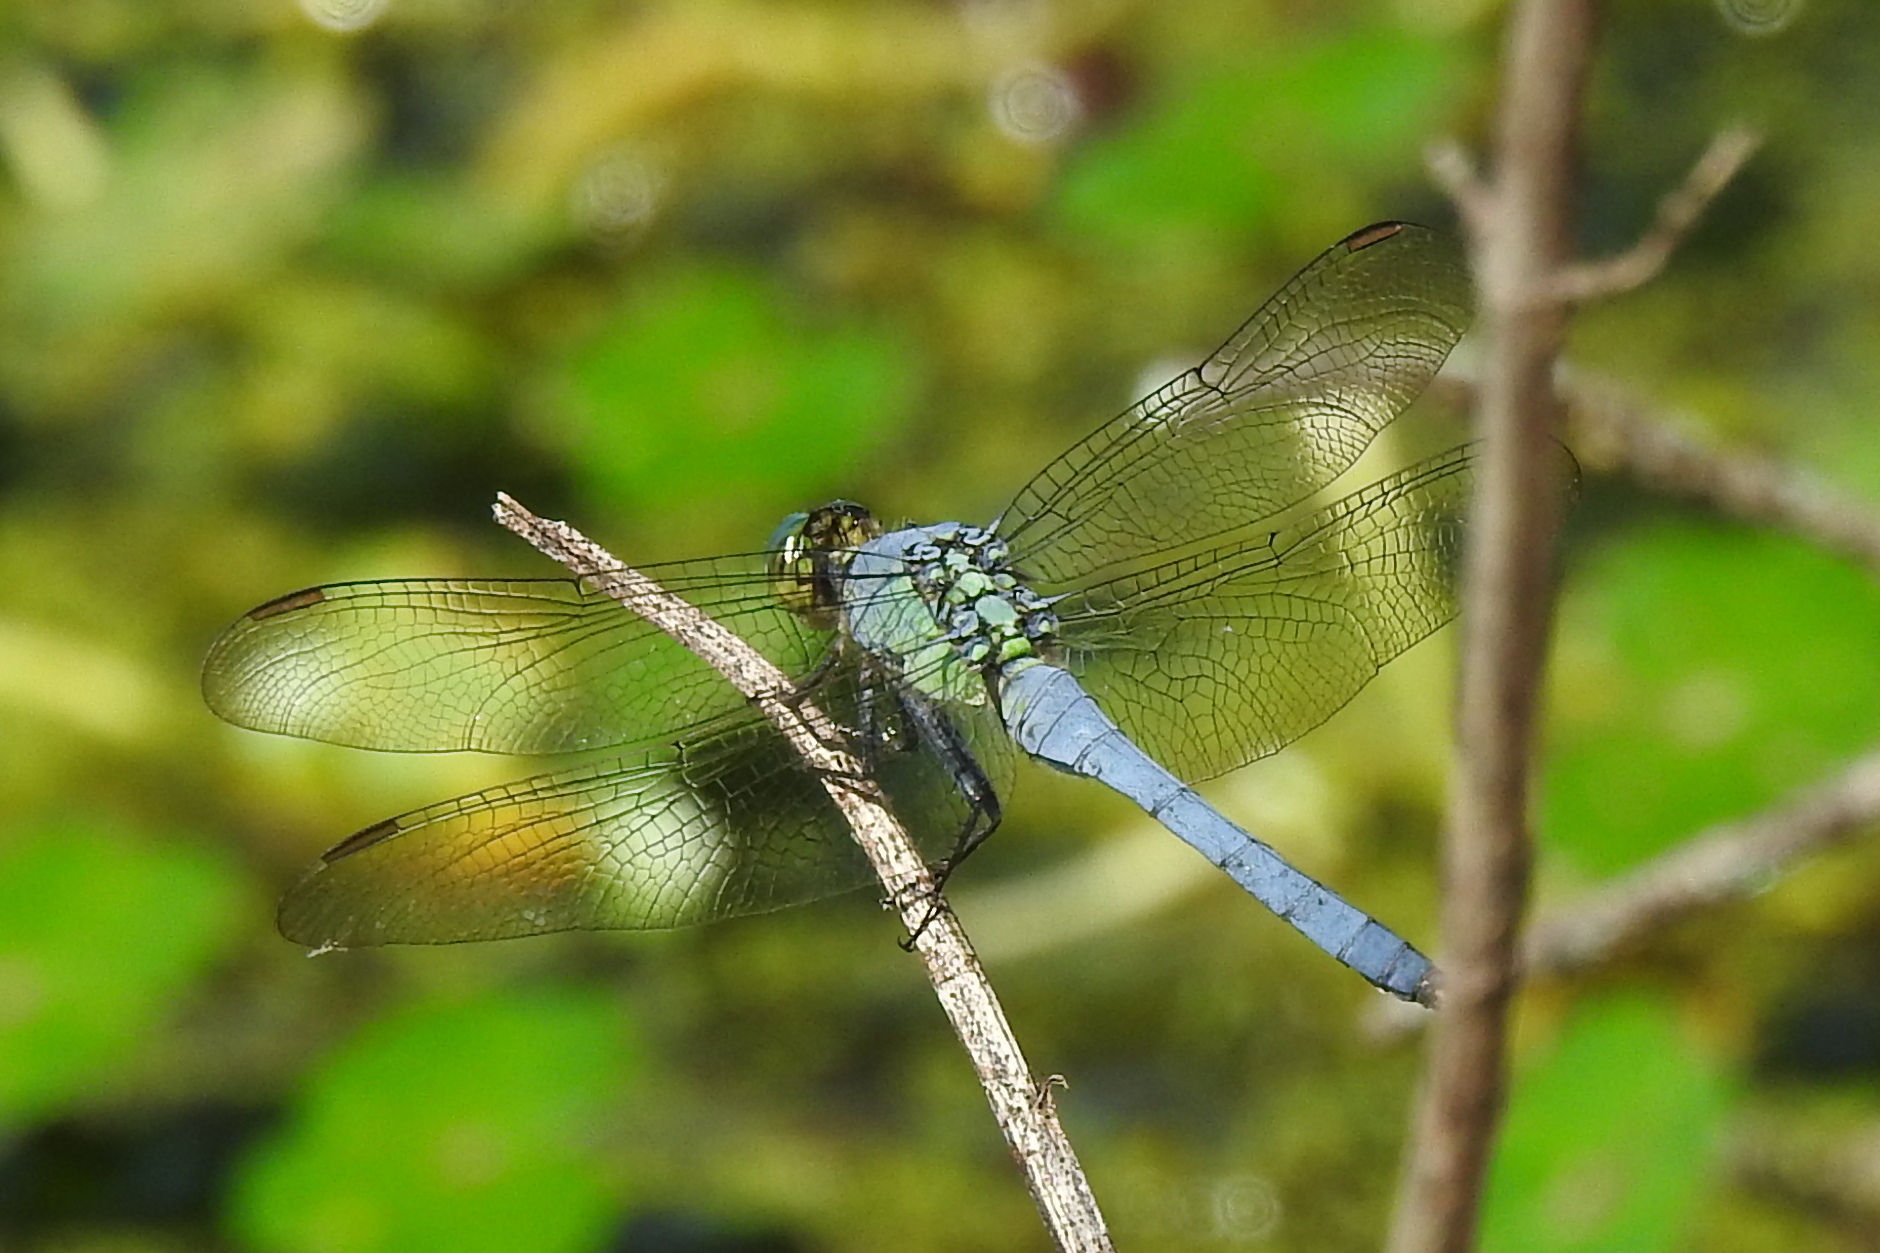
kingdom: Animalia
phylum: Arthropoda
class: Insecta
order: Odonata
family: Libellulidae
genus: Erythemis
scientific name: Erythemis simplicicollis
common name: Eastern pondhawk
